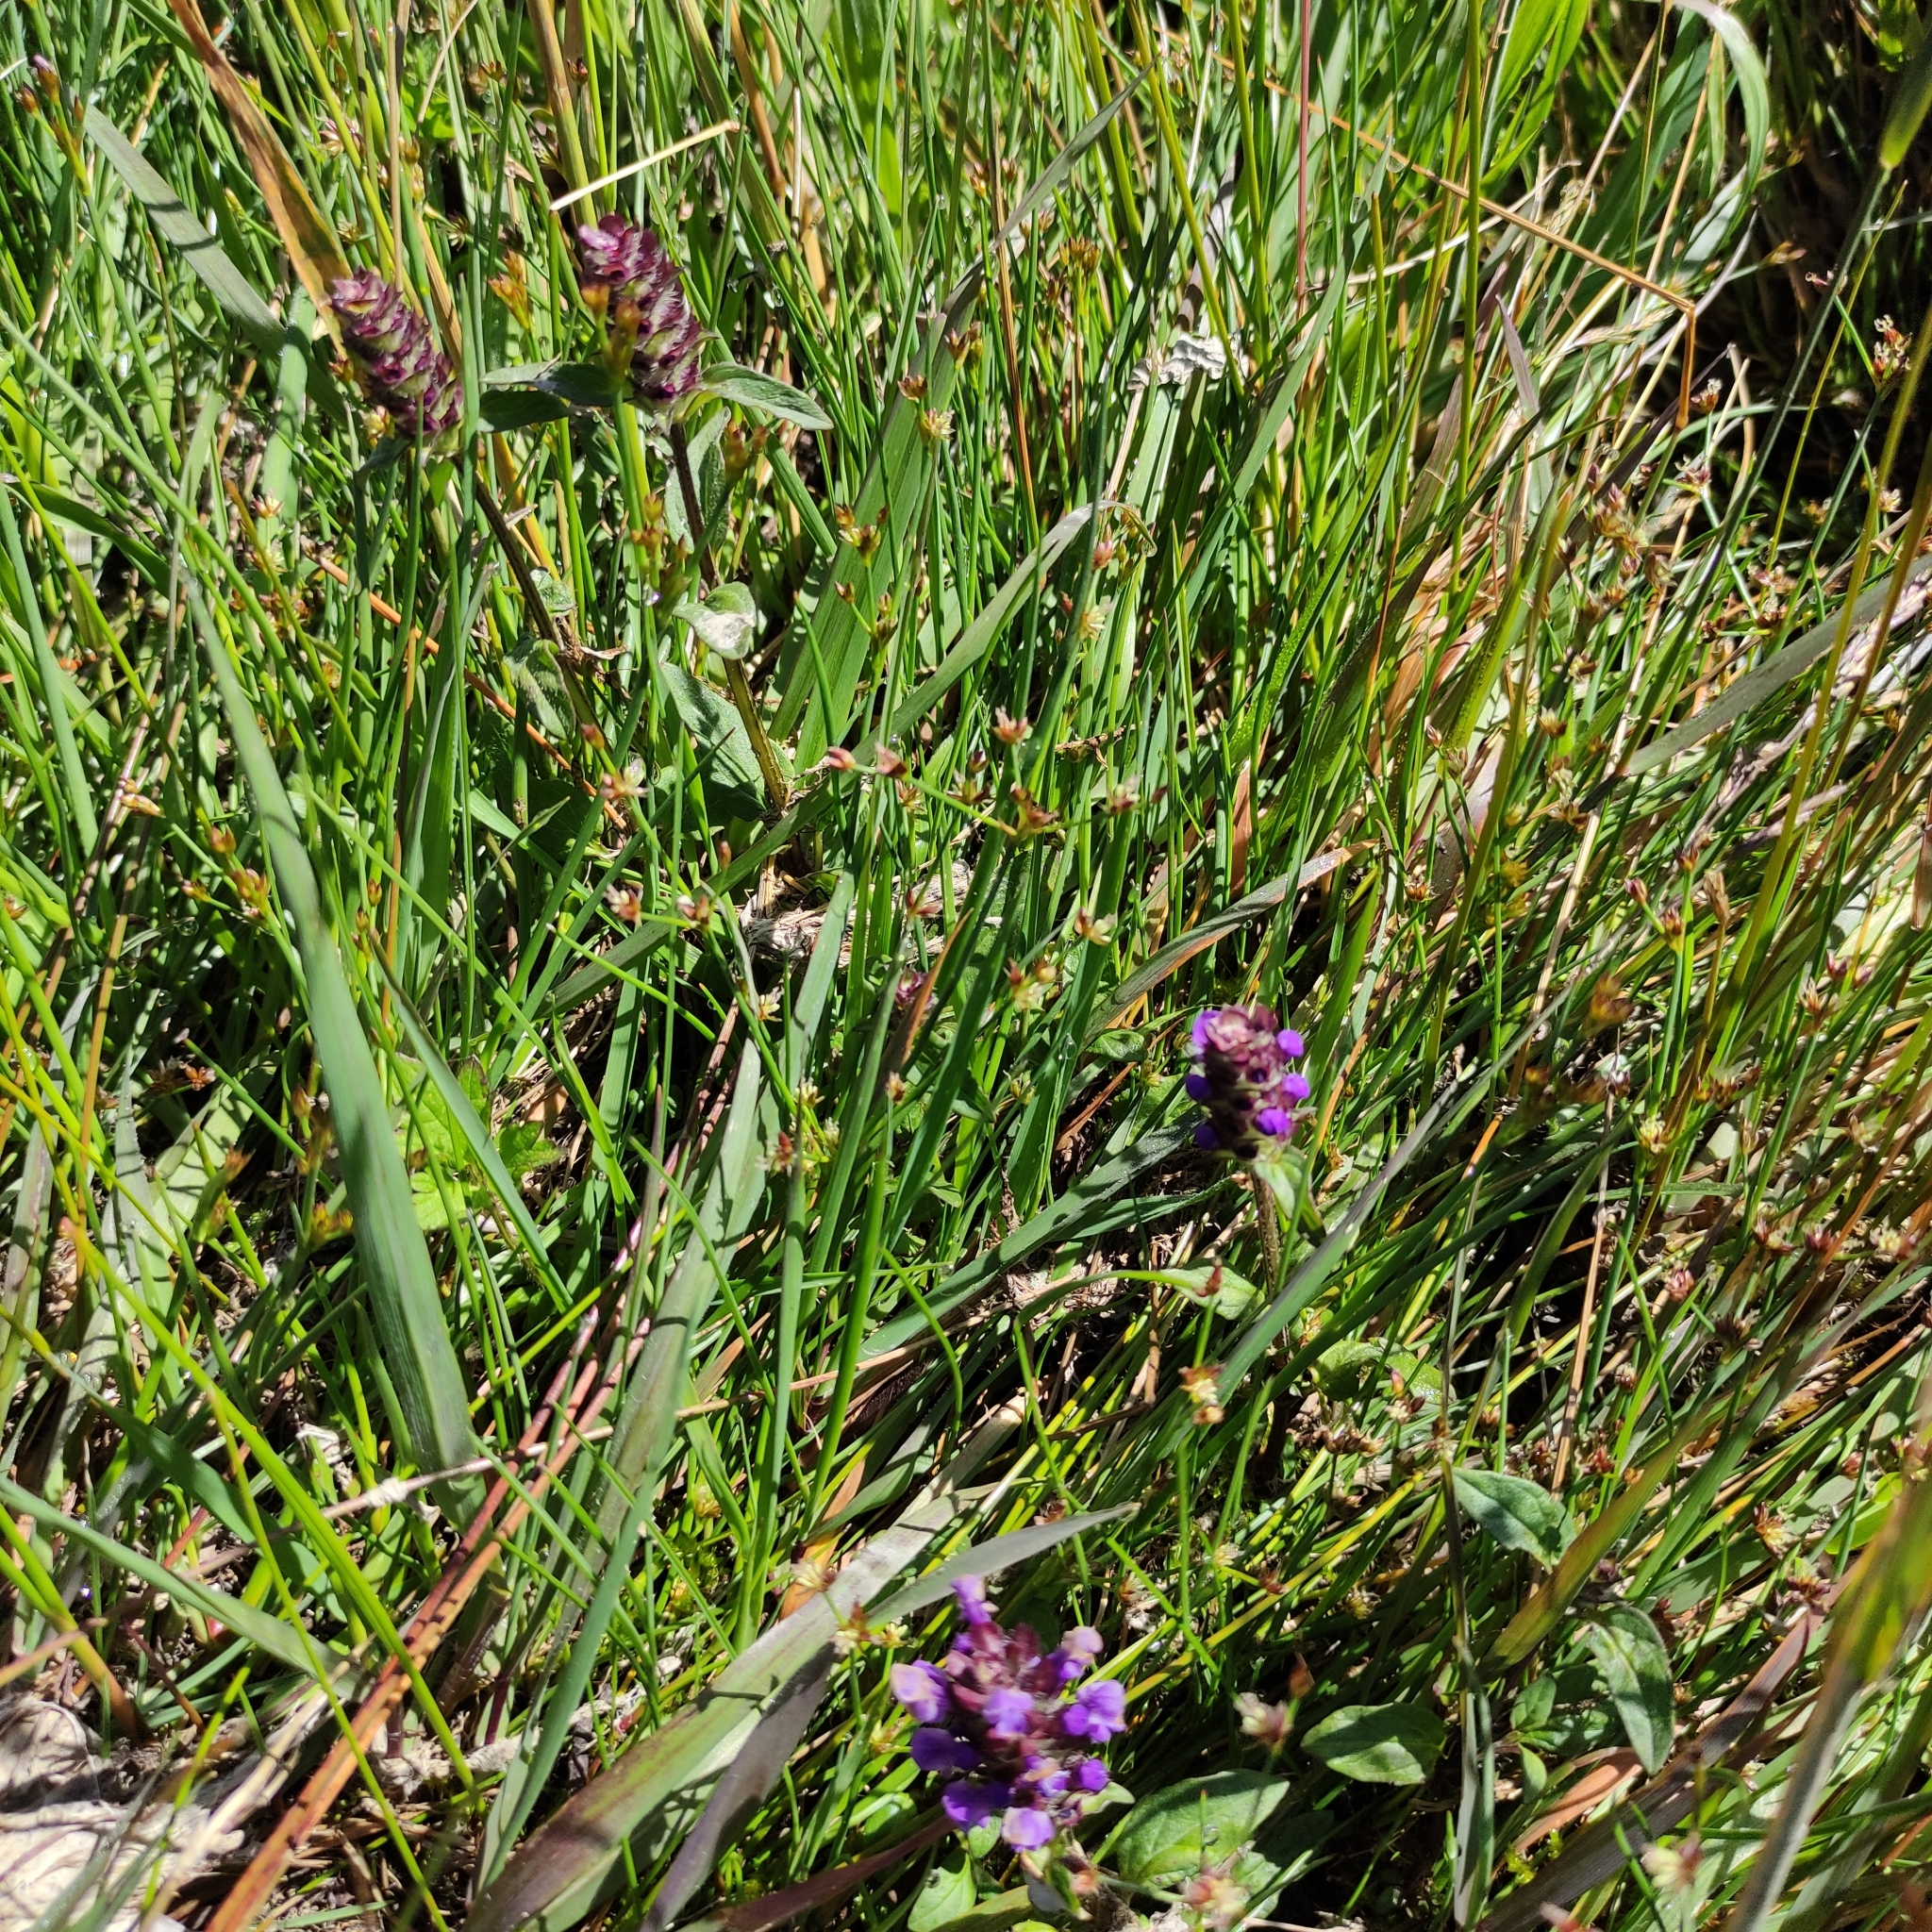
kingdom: Plantae
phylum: Tracheophyta
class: Magnoliopsida
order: Lamiales
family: Lamiaceae
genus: Prunella
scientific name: Prunella vulgaris
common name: Heal-all
